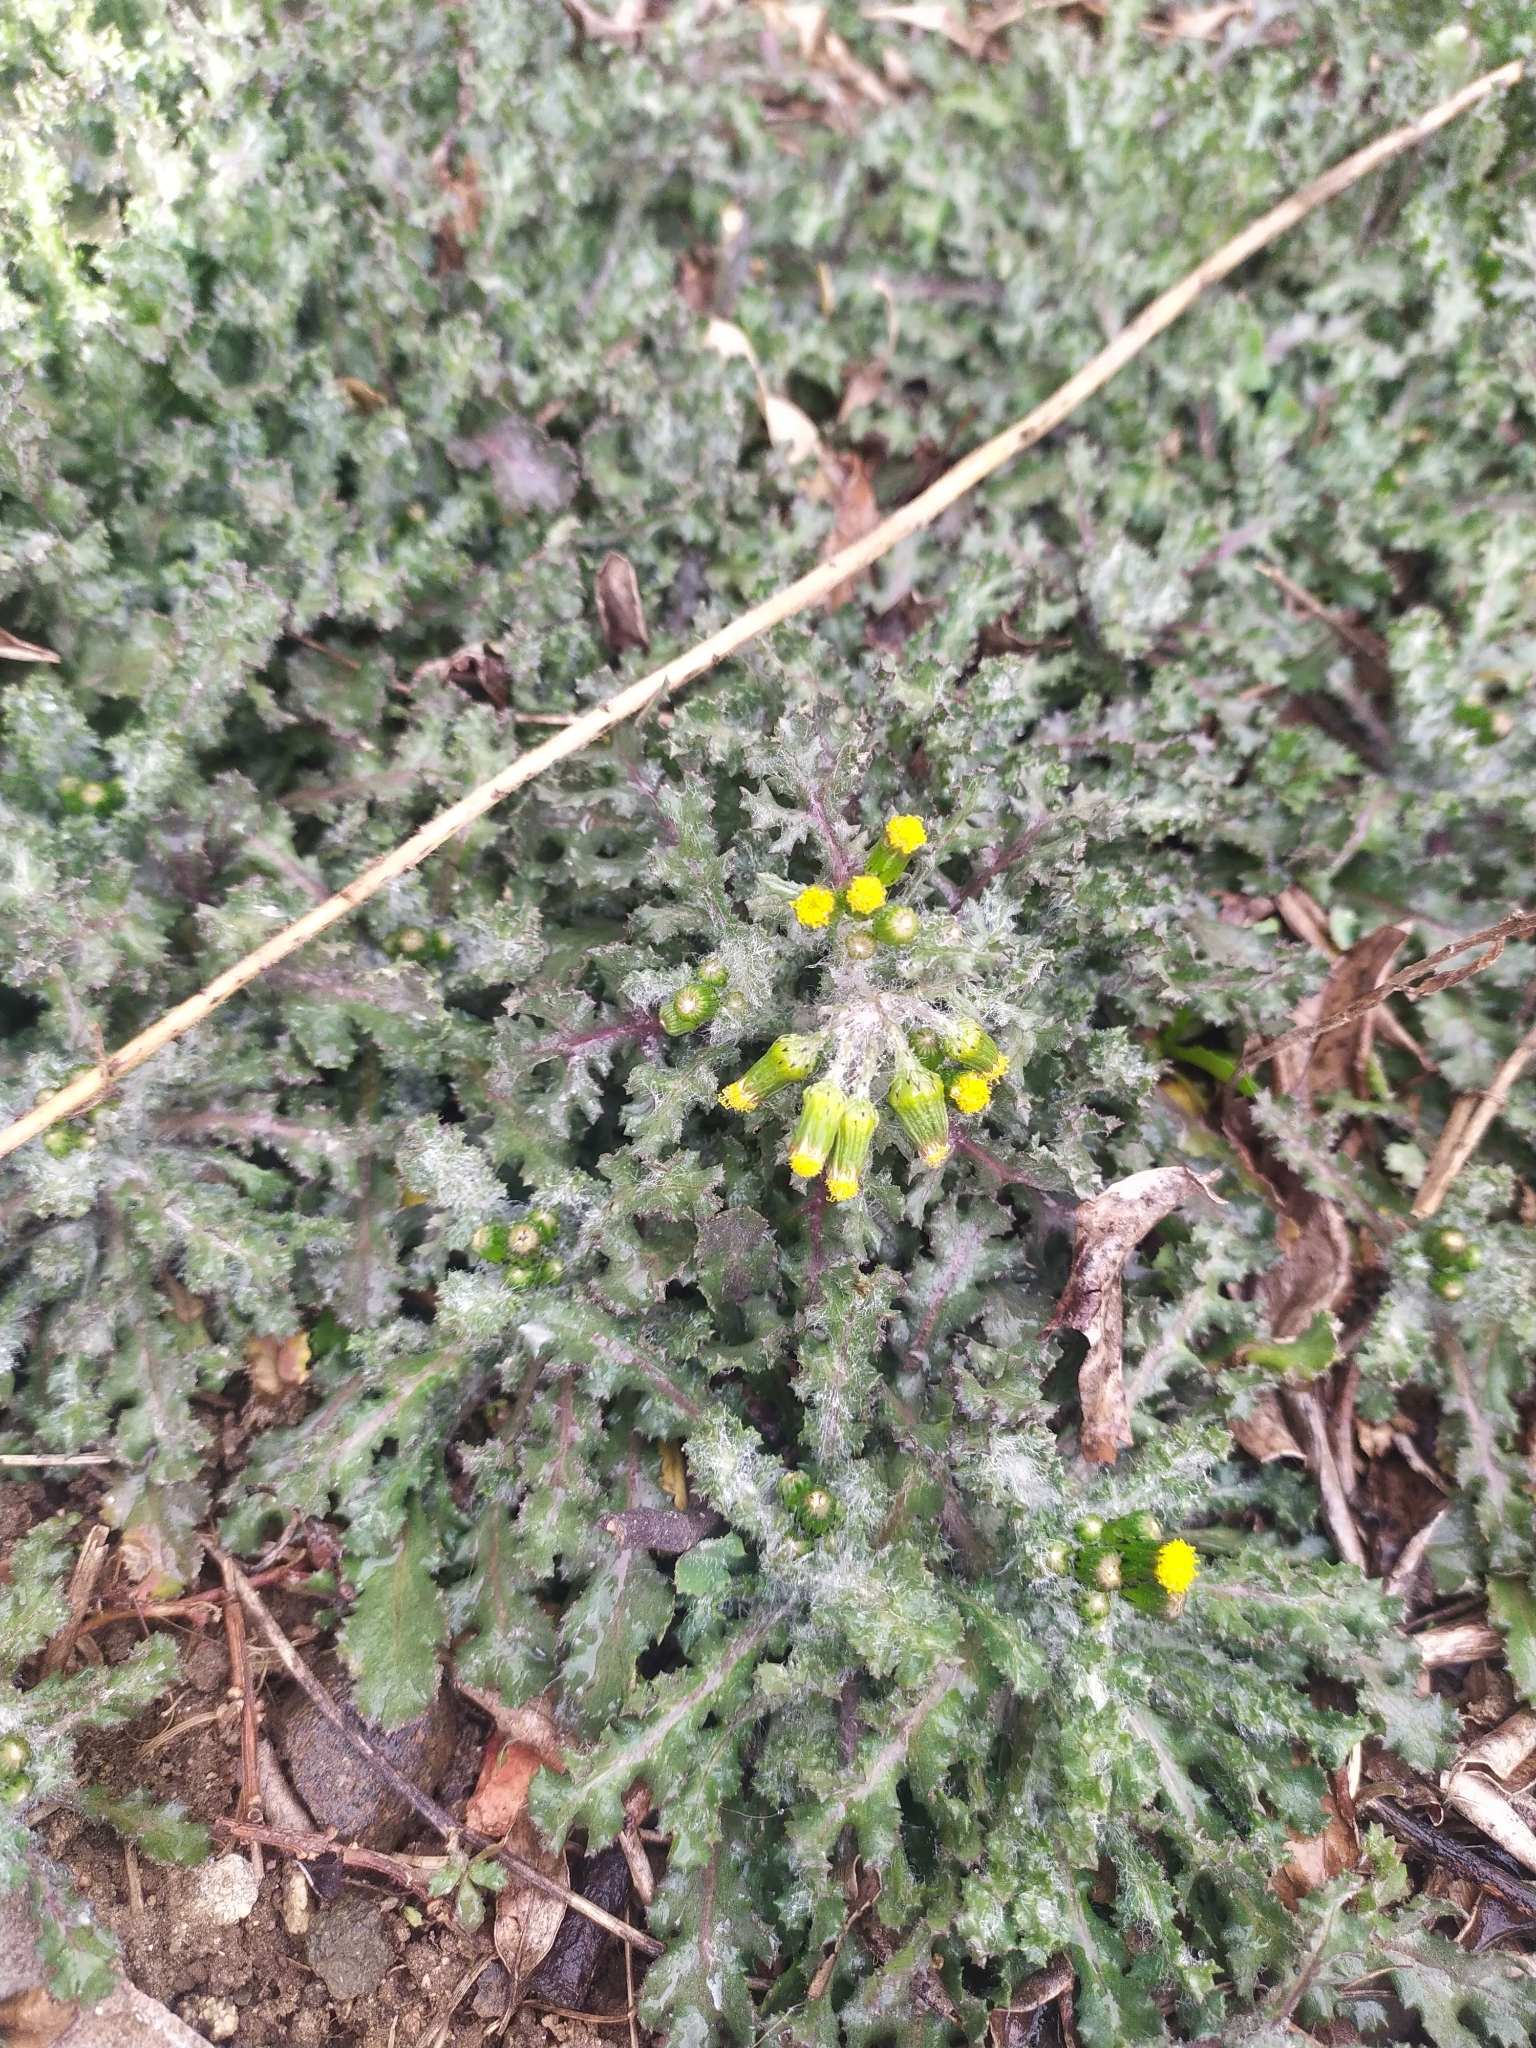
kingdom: Plantae
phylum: Tracheophyta
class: Magnoliopsida
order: Asterales
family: Asteraceae
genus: Senecio
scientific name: Senecio vulgaris
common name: Old-man-in-the-spring
